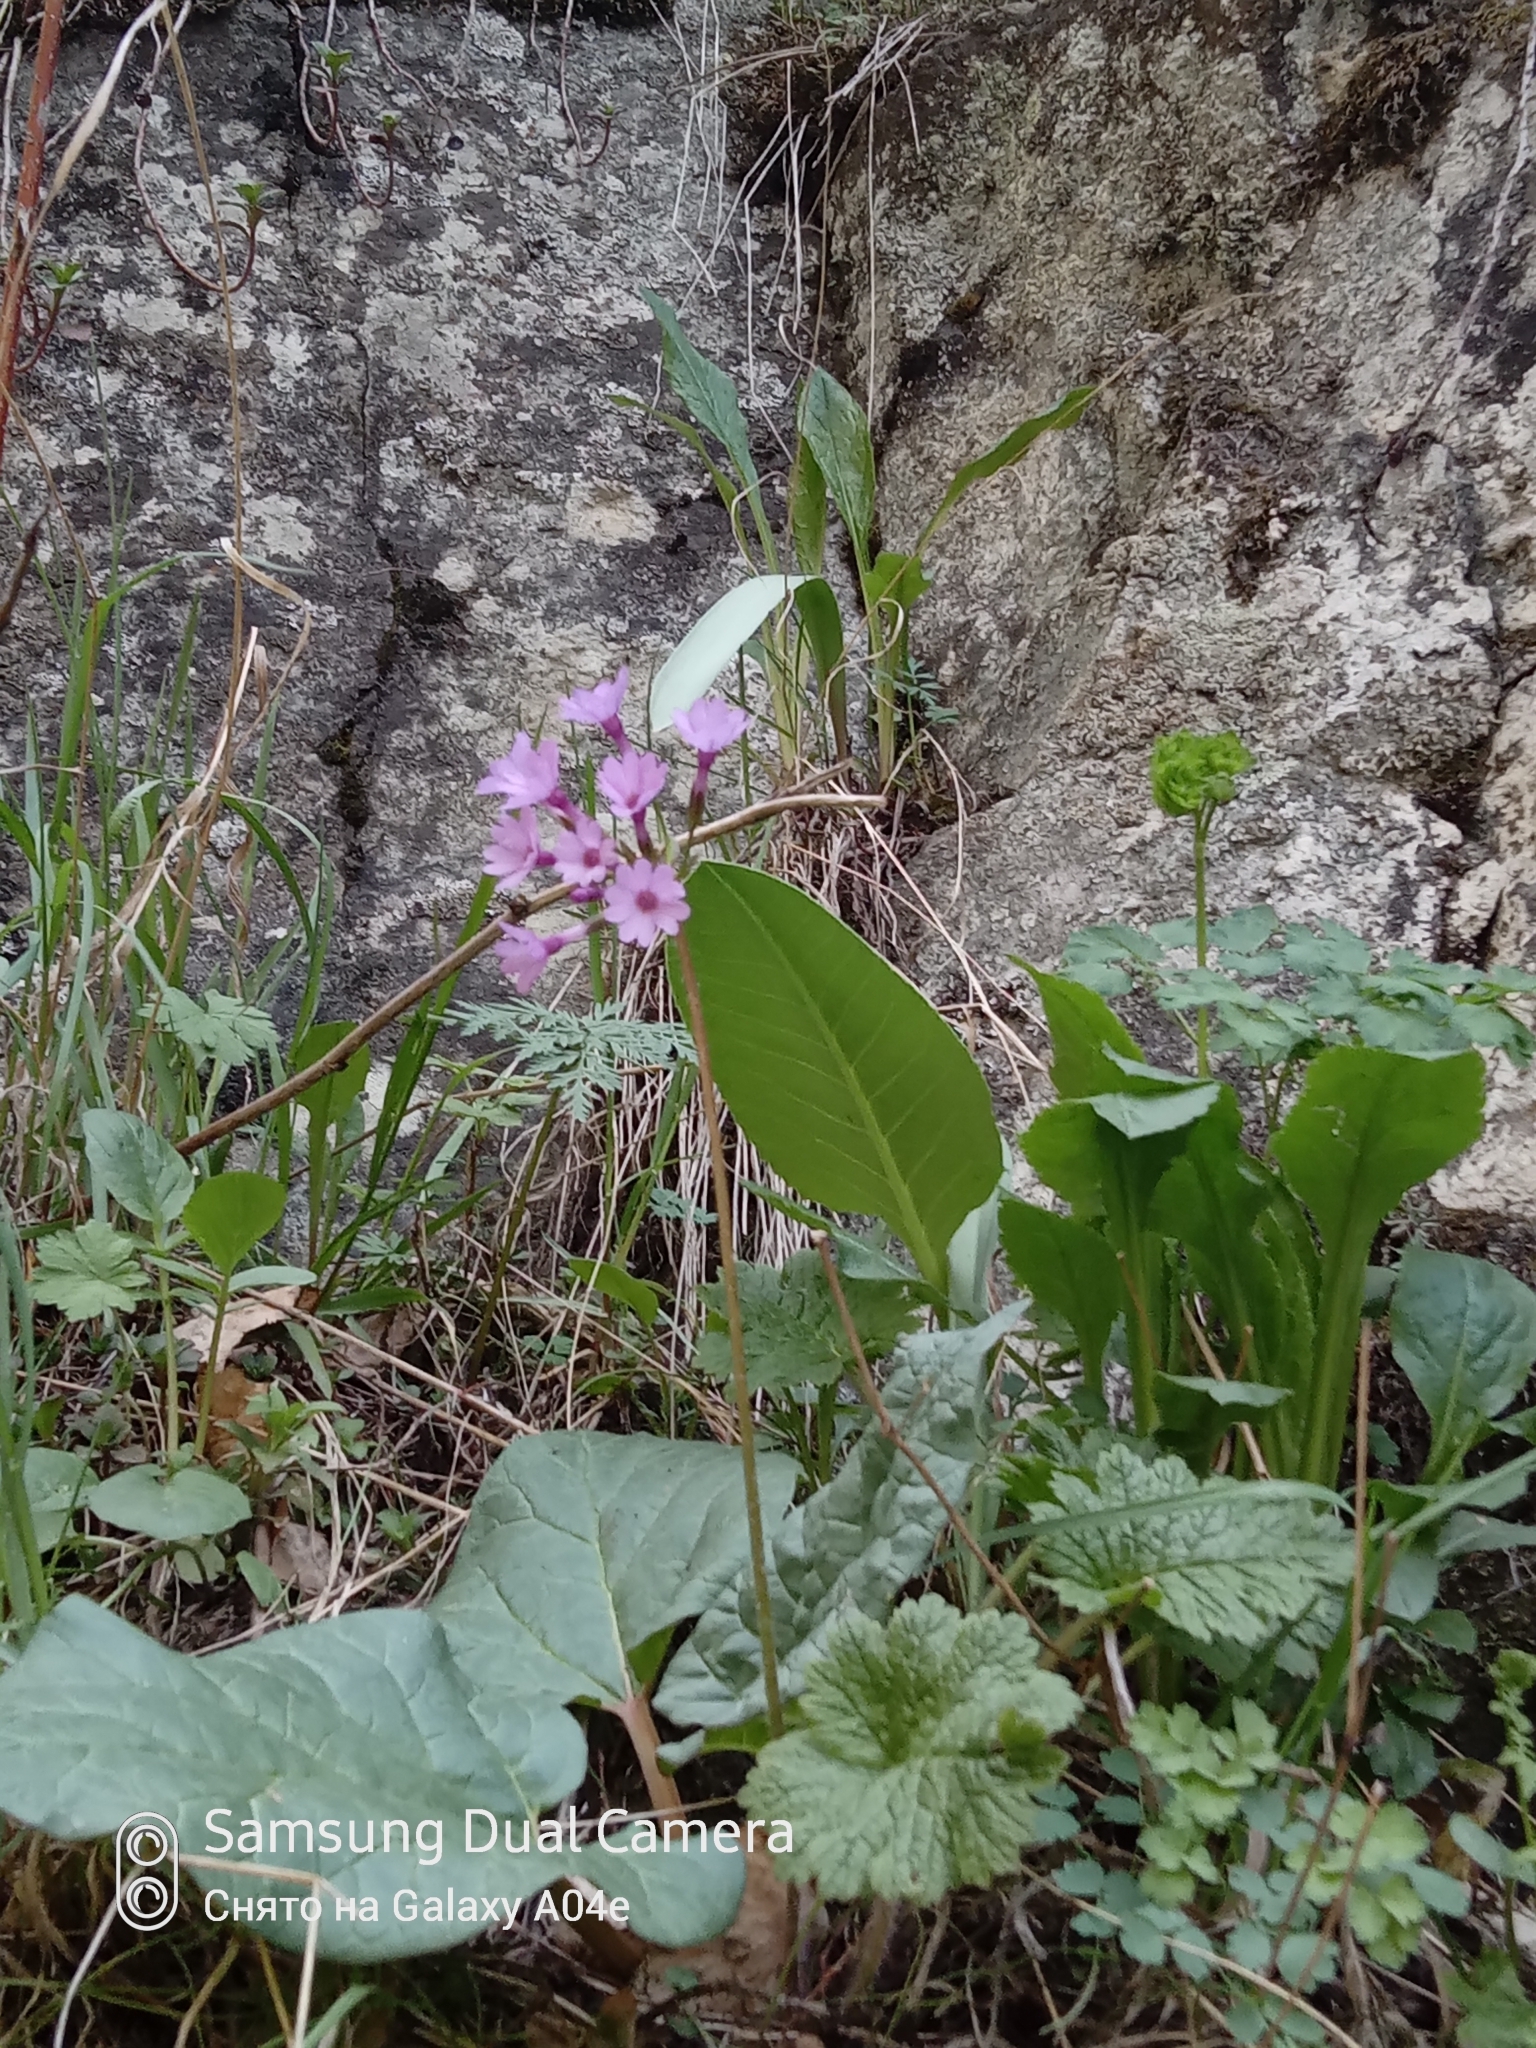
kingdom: Plantae
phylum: Tracheophyta
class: Magnoliopsida
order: Ericales
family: Primulaceae
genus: Primula
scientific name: Primula kaufmanniana
